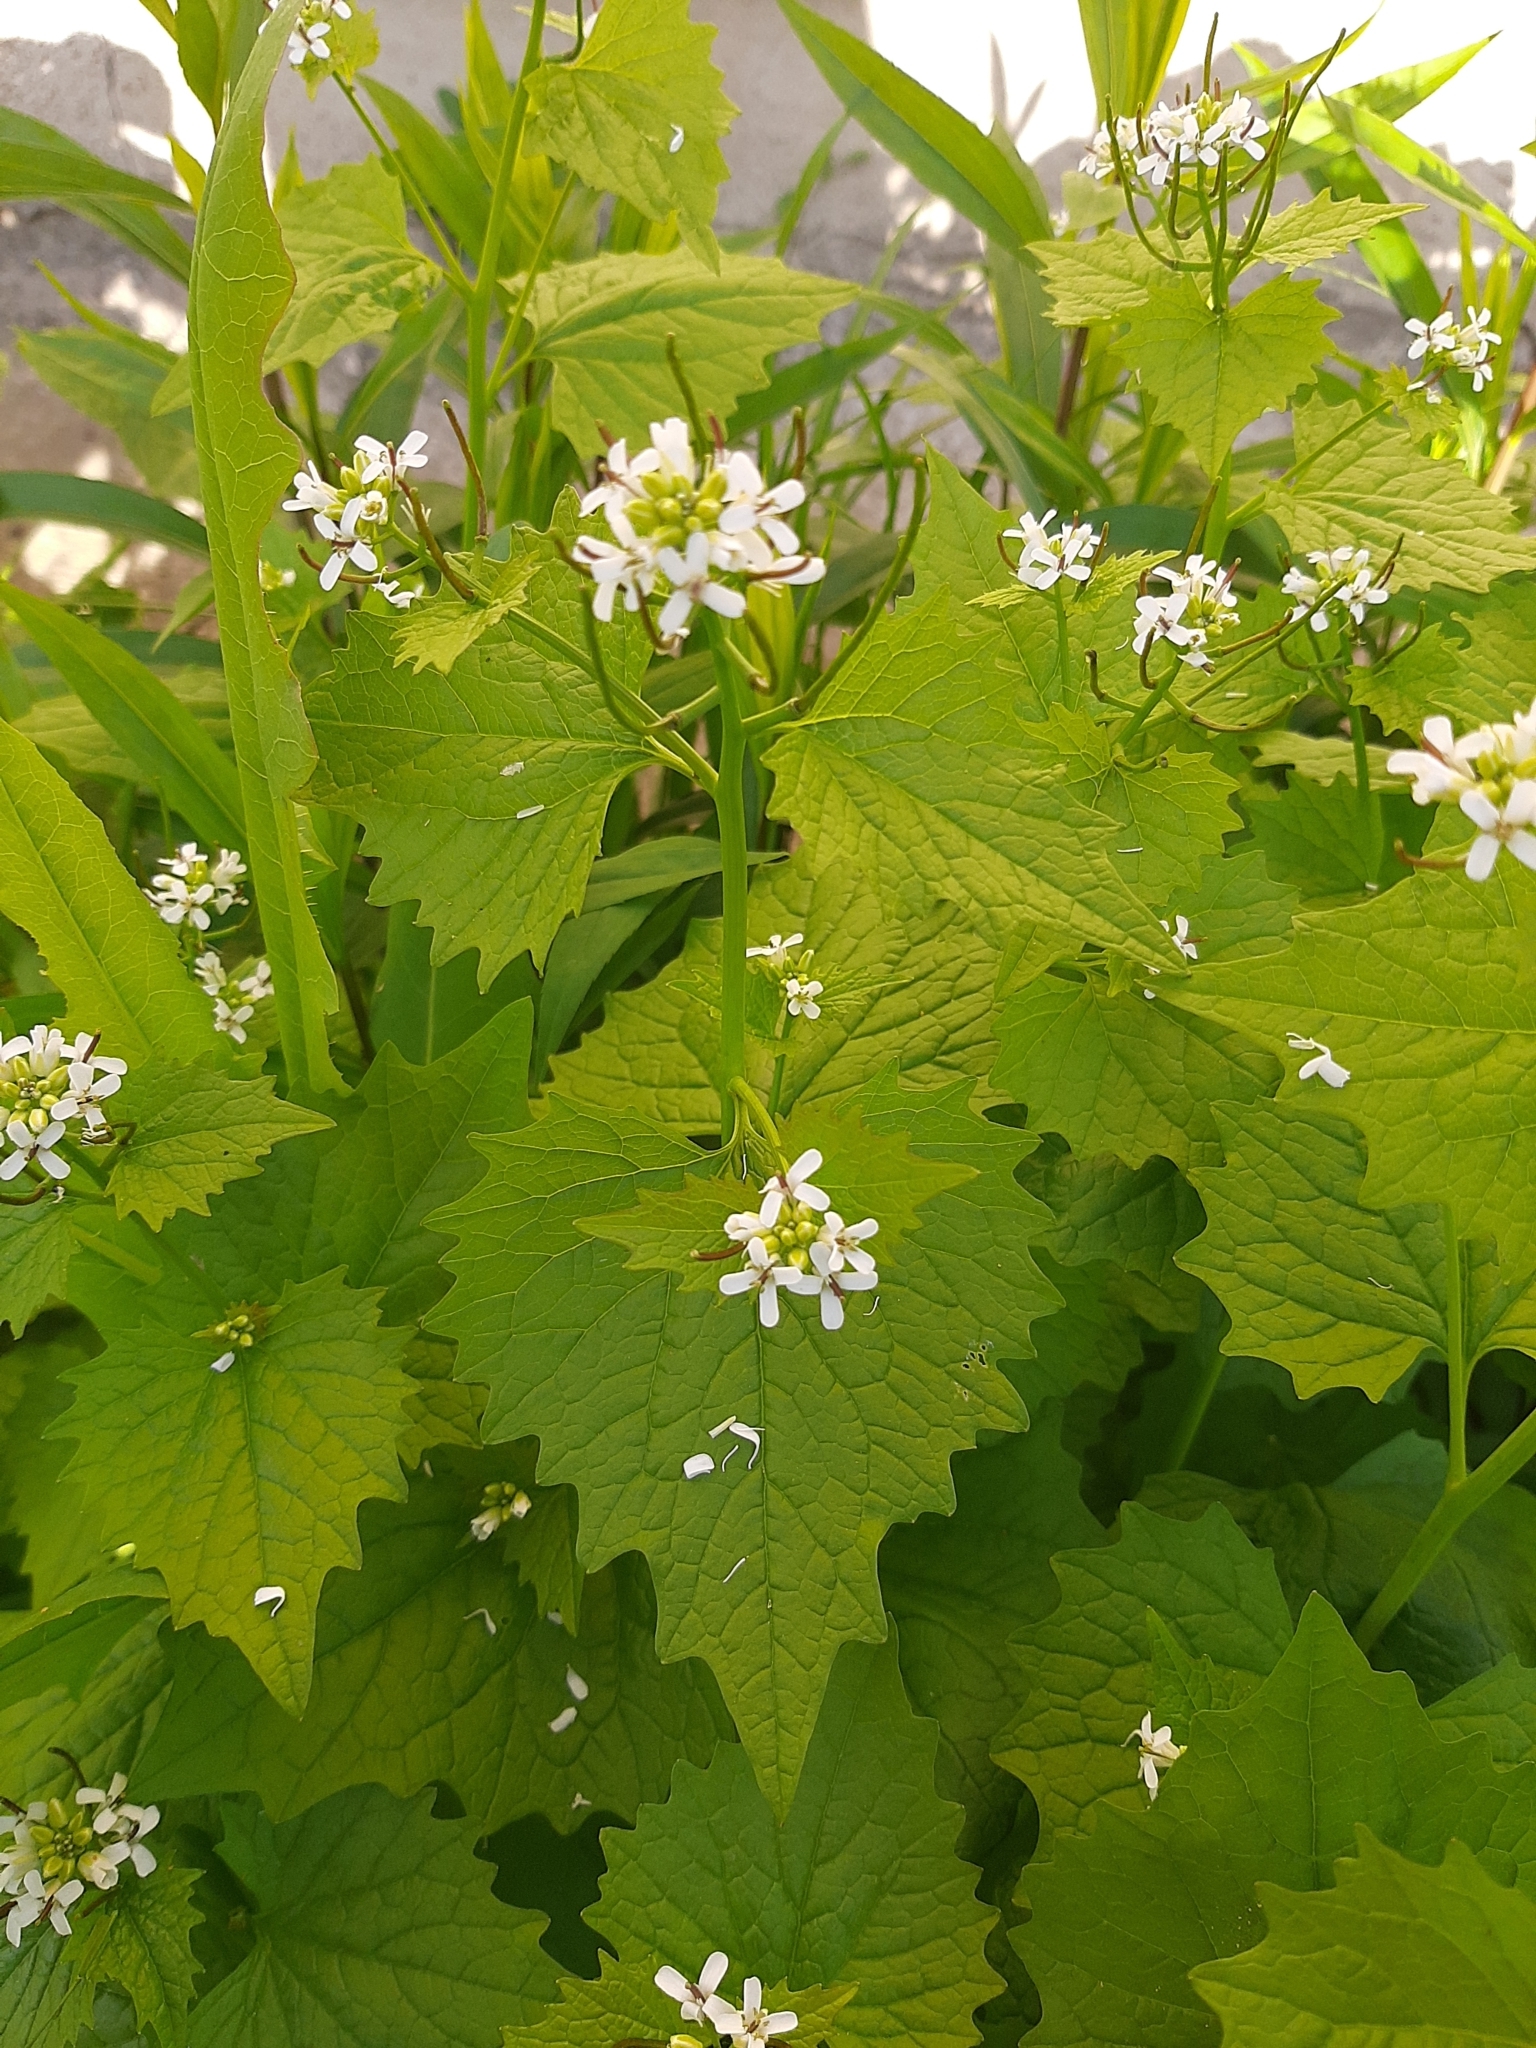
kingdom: Plantae
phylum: Tracheophyta
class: Magnoliopsida
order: Brassicales
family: Brassicaceae
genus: Alliaria
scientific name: Alliaria petiolata
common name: Garlic mustard
